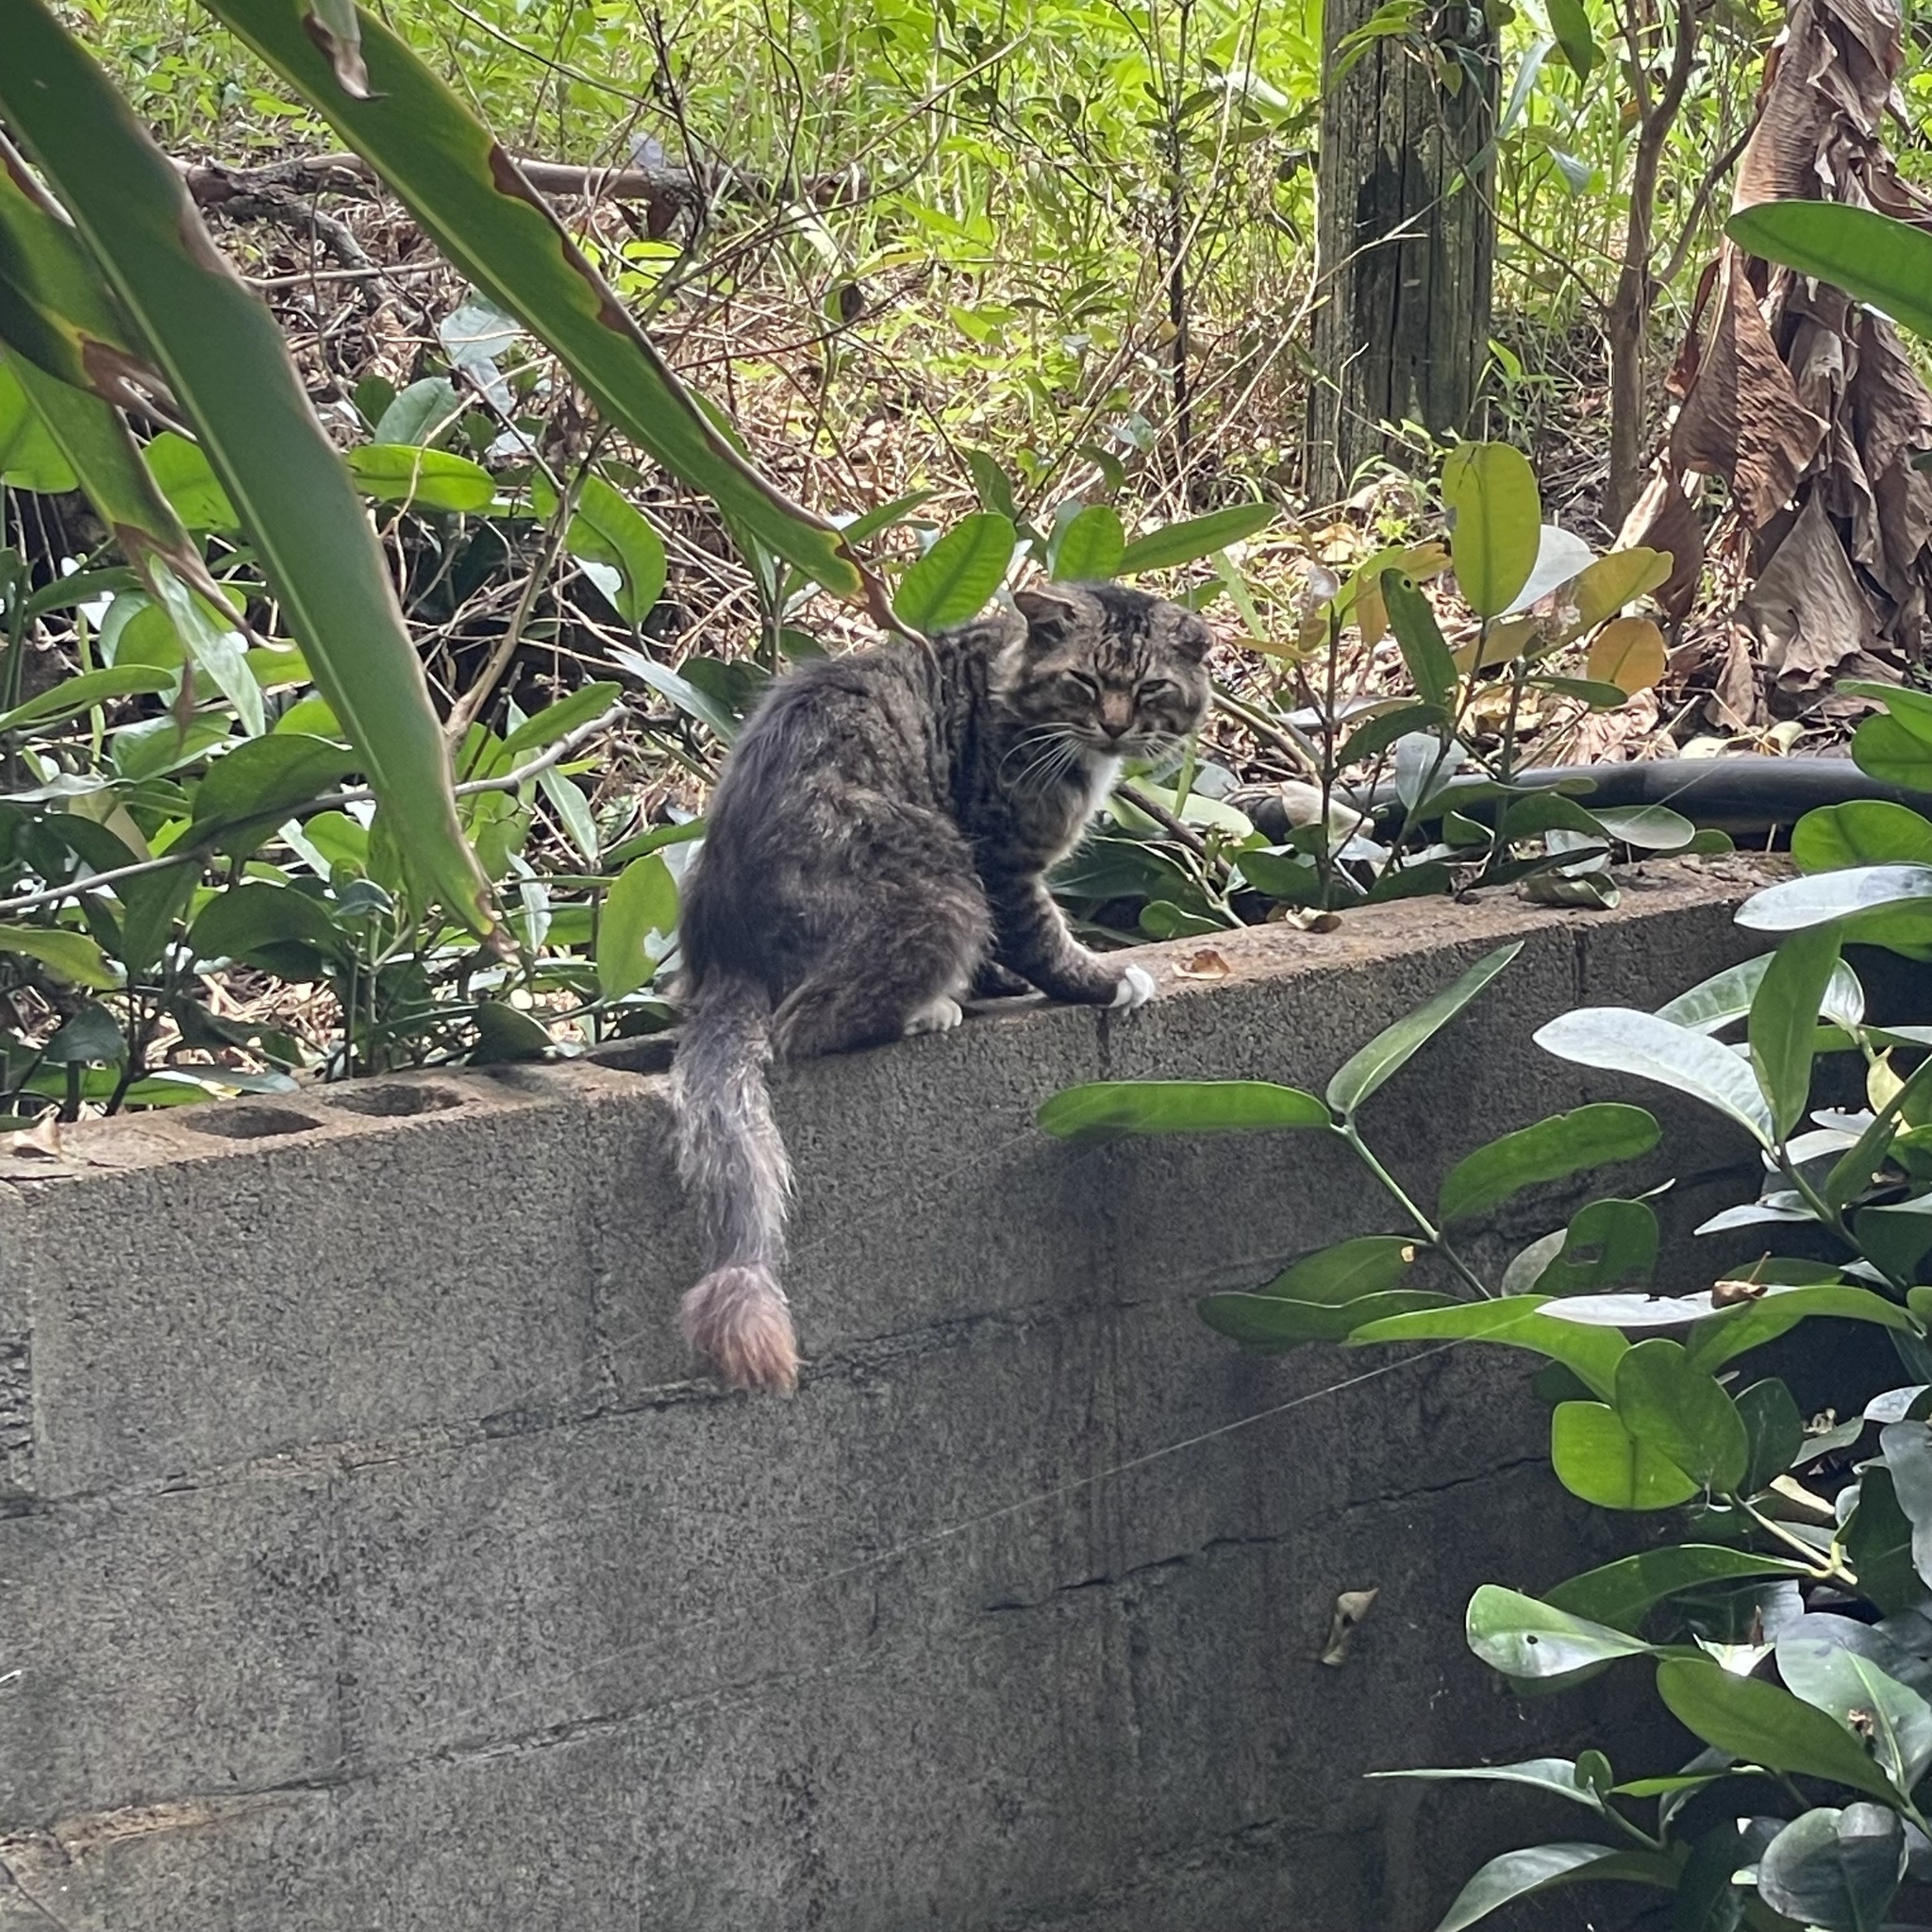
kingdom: Animalia
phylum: Chordata
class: Mammalia
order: Carnivora
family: Felidae
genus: Felis
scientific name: Felis catus
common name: Domestic cat
